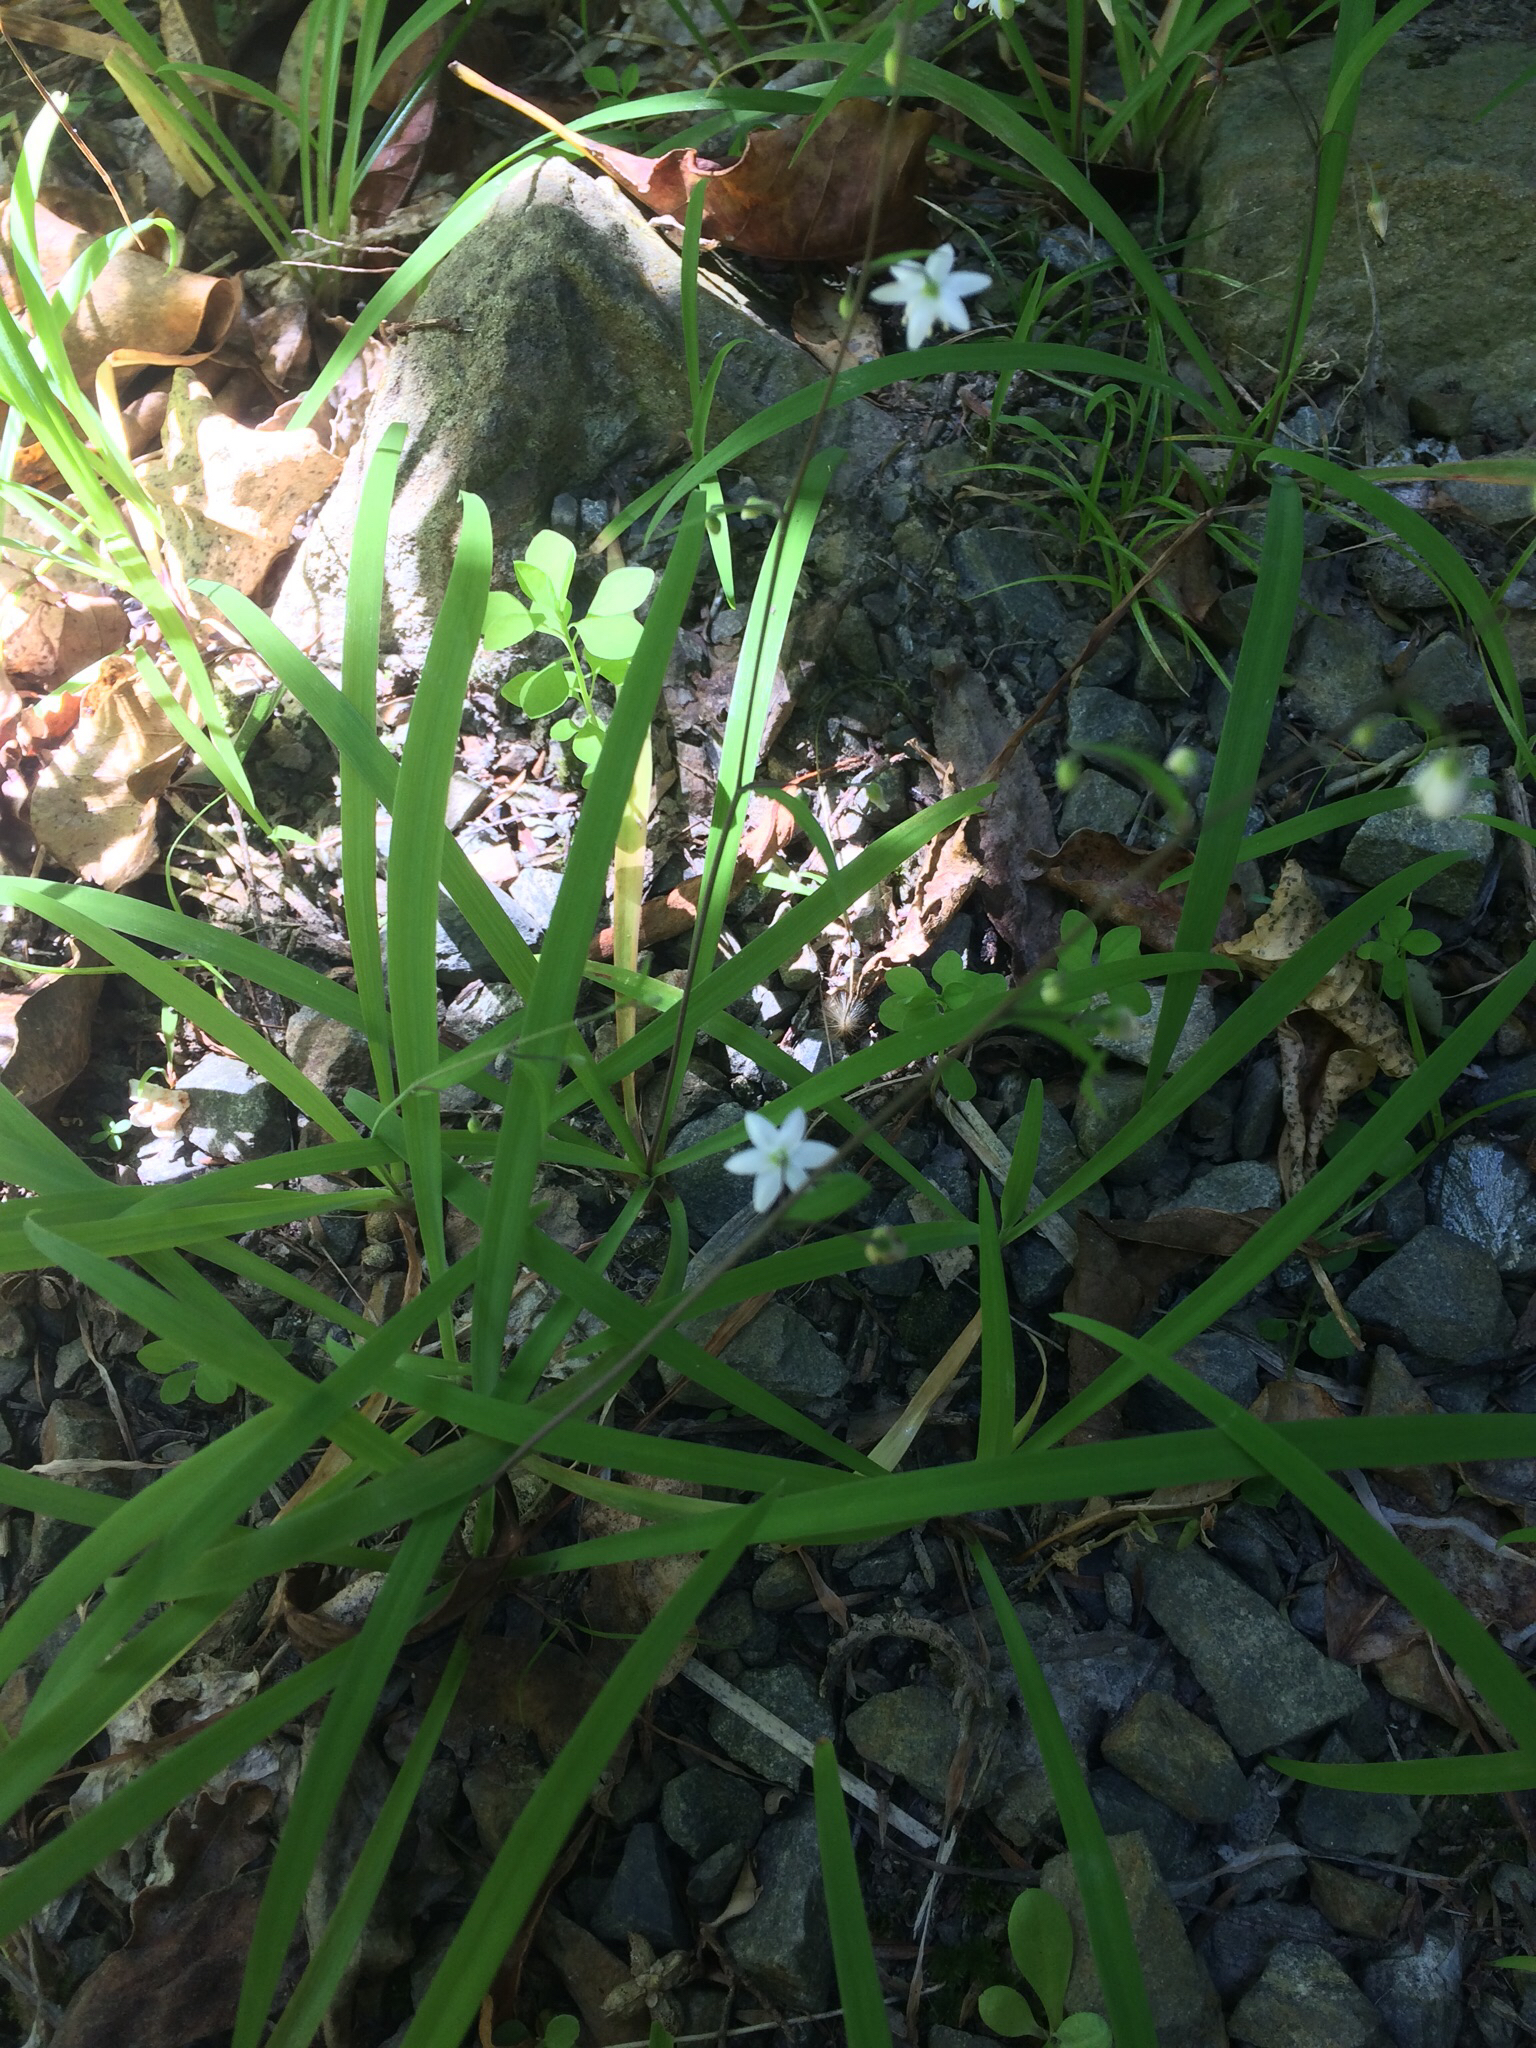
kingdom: Plantae
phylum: Tracheophyta
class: Liliopsida
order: Asparagales
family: Asparagaceae
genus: Arthropodium
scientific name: Arthropodium candidum
